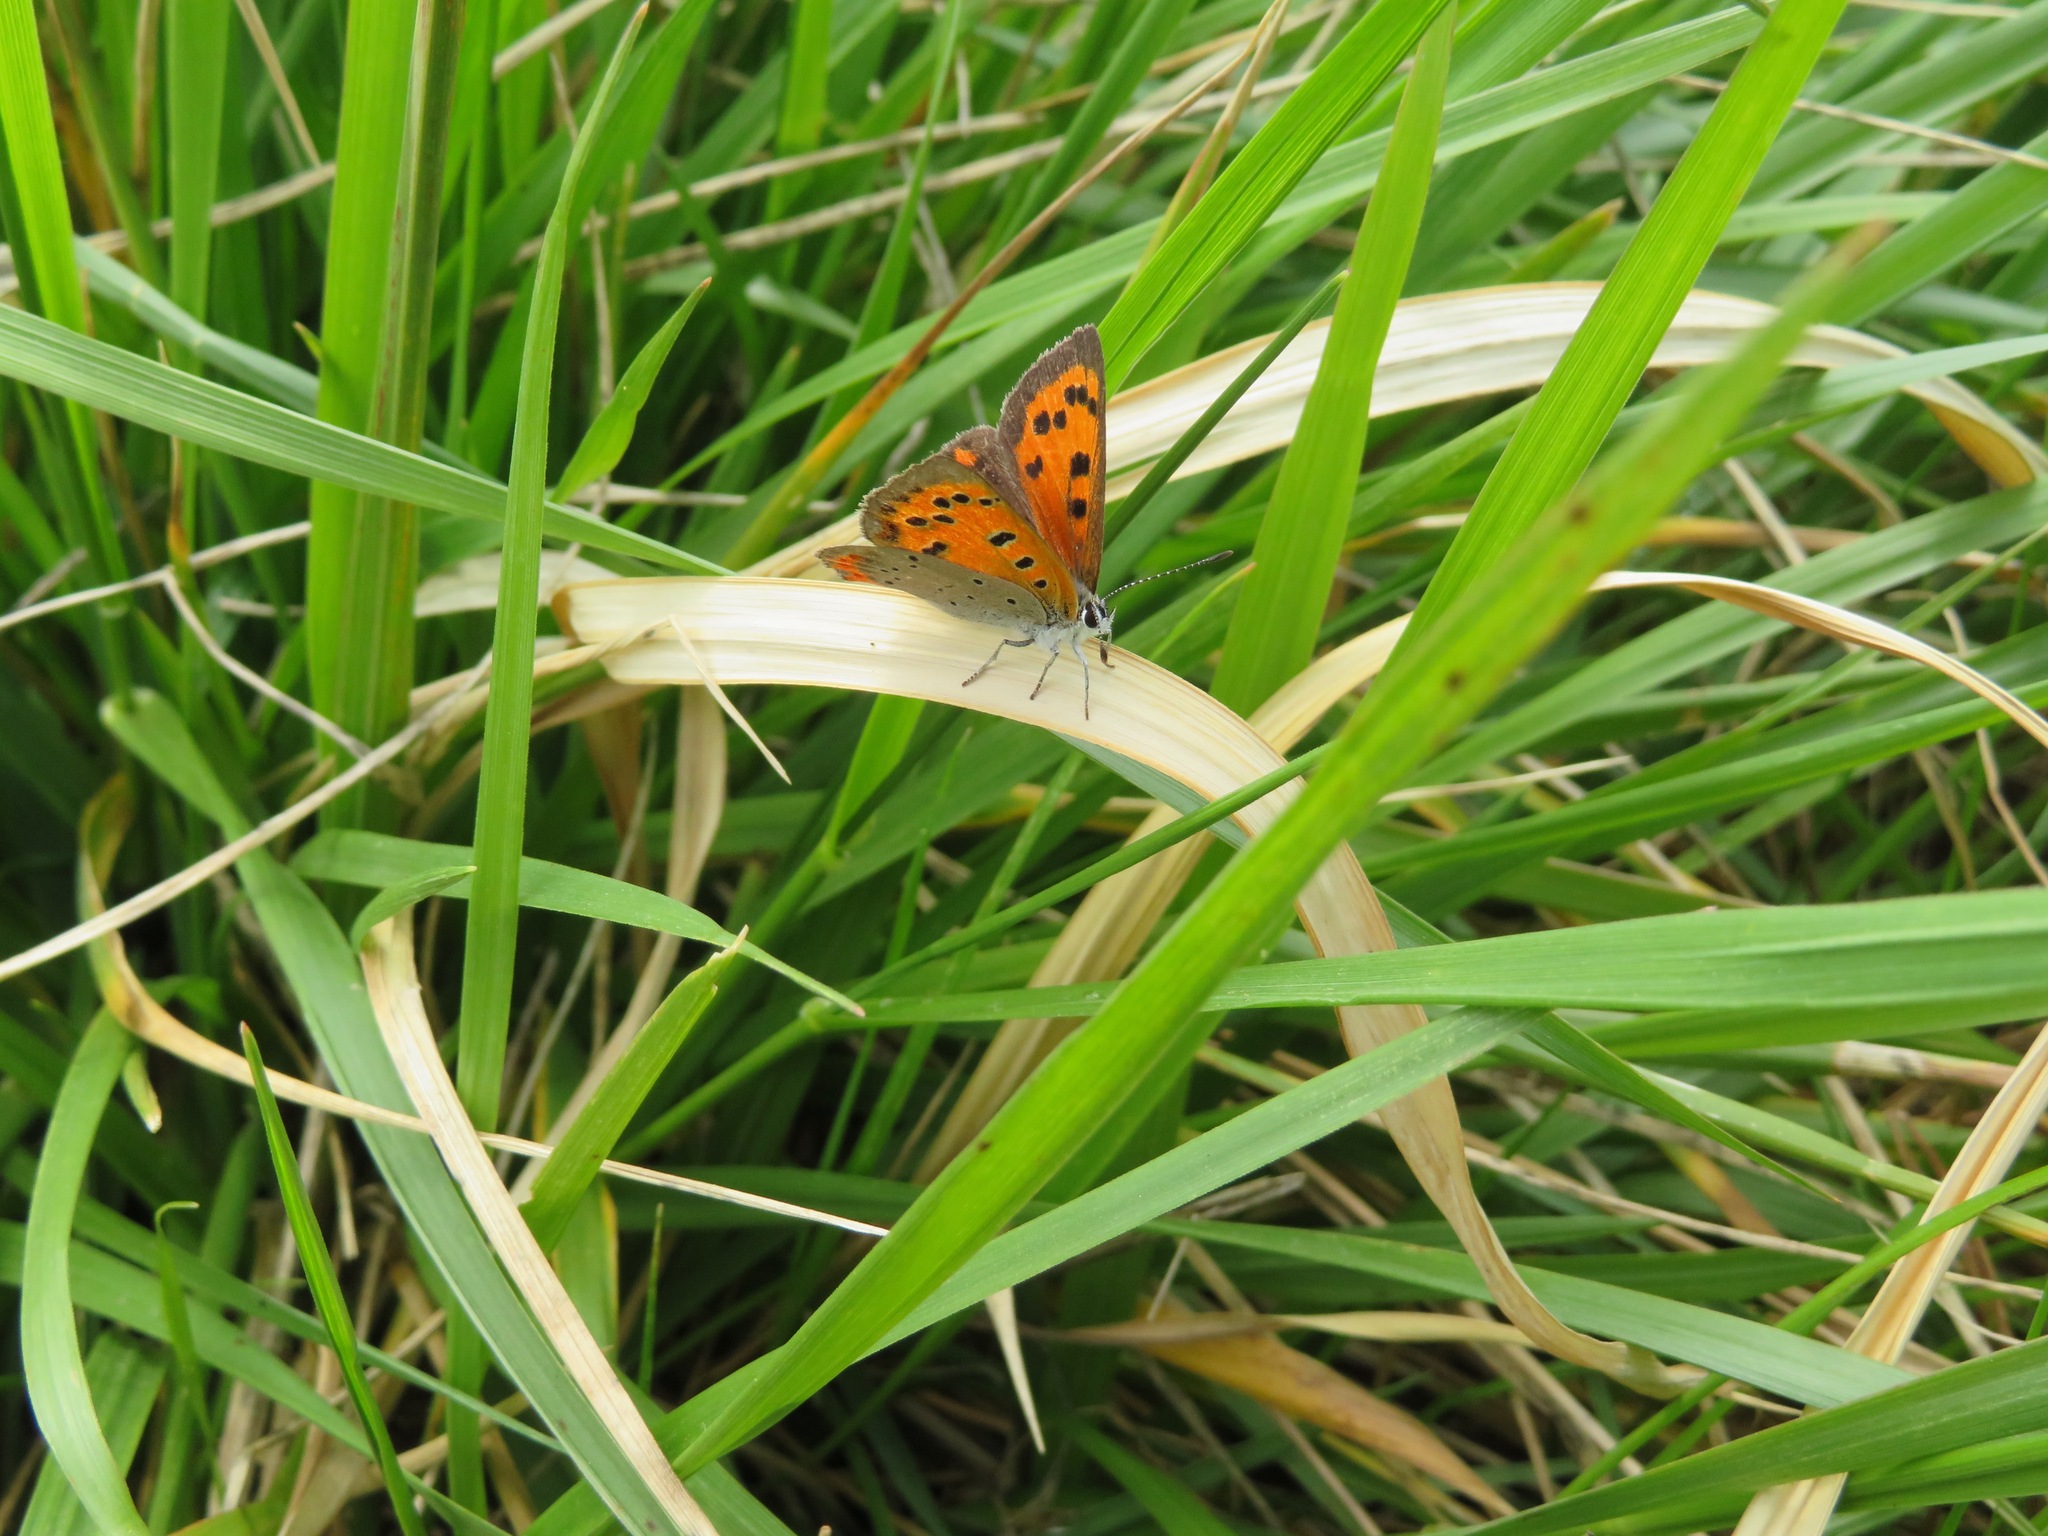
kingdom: Animalia
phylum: Arthropoda
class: Insecta
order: Lepidoptera
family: Lycaenidae
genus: Lycaena
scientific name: Lycaena phlaeas
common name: Small copper
